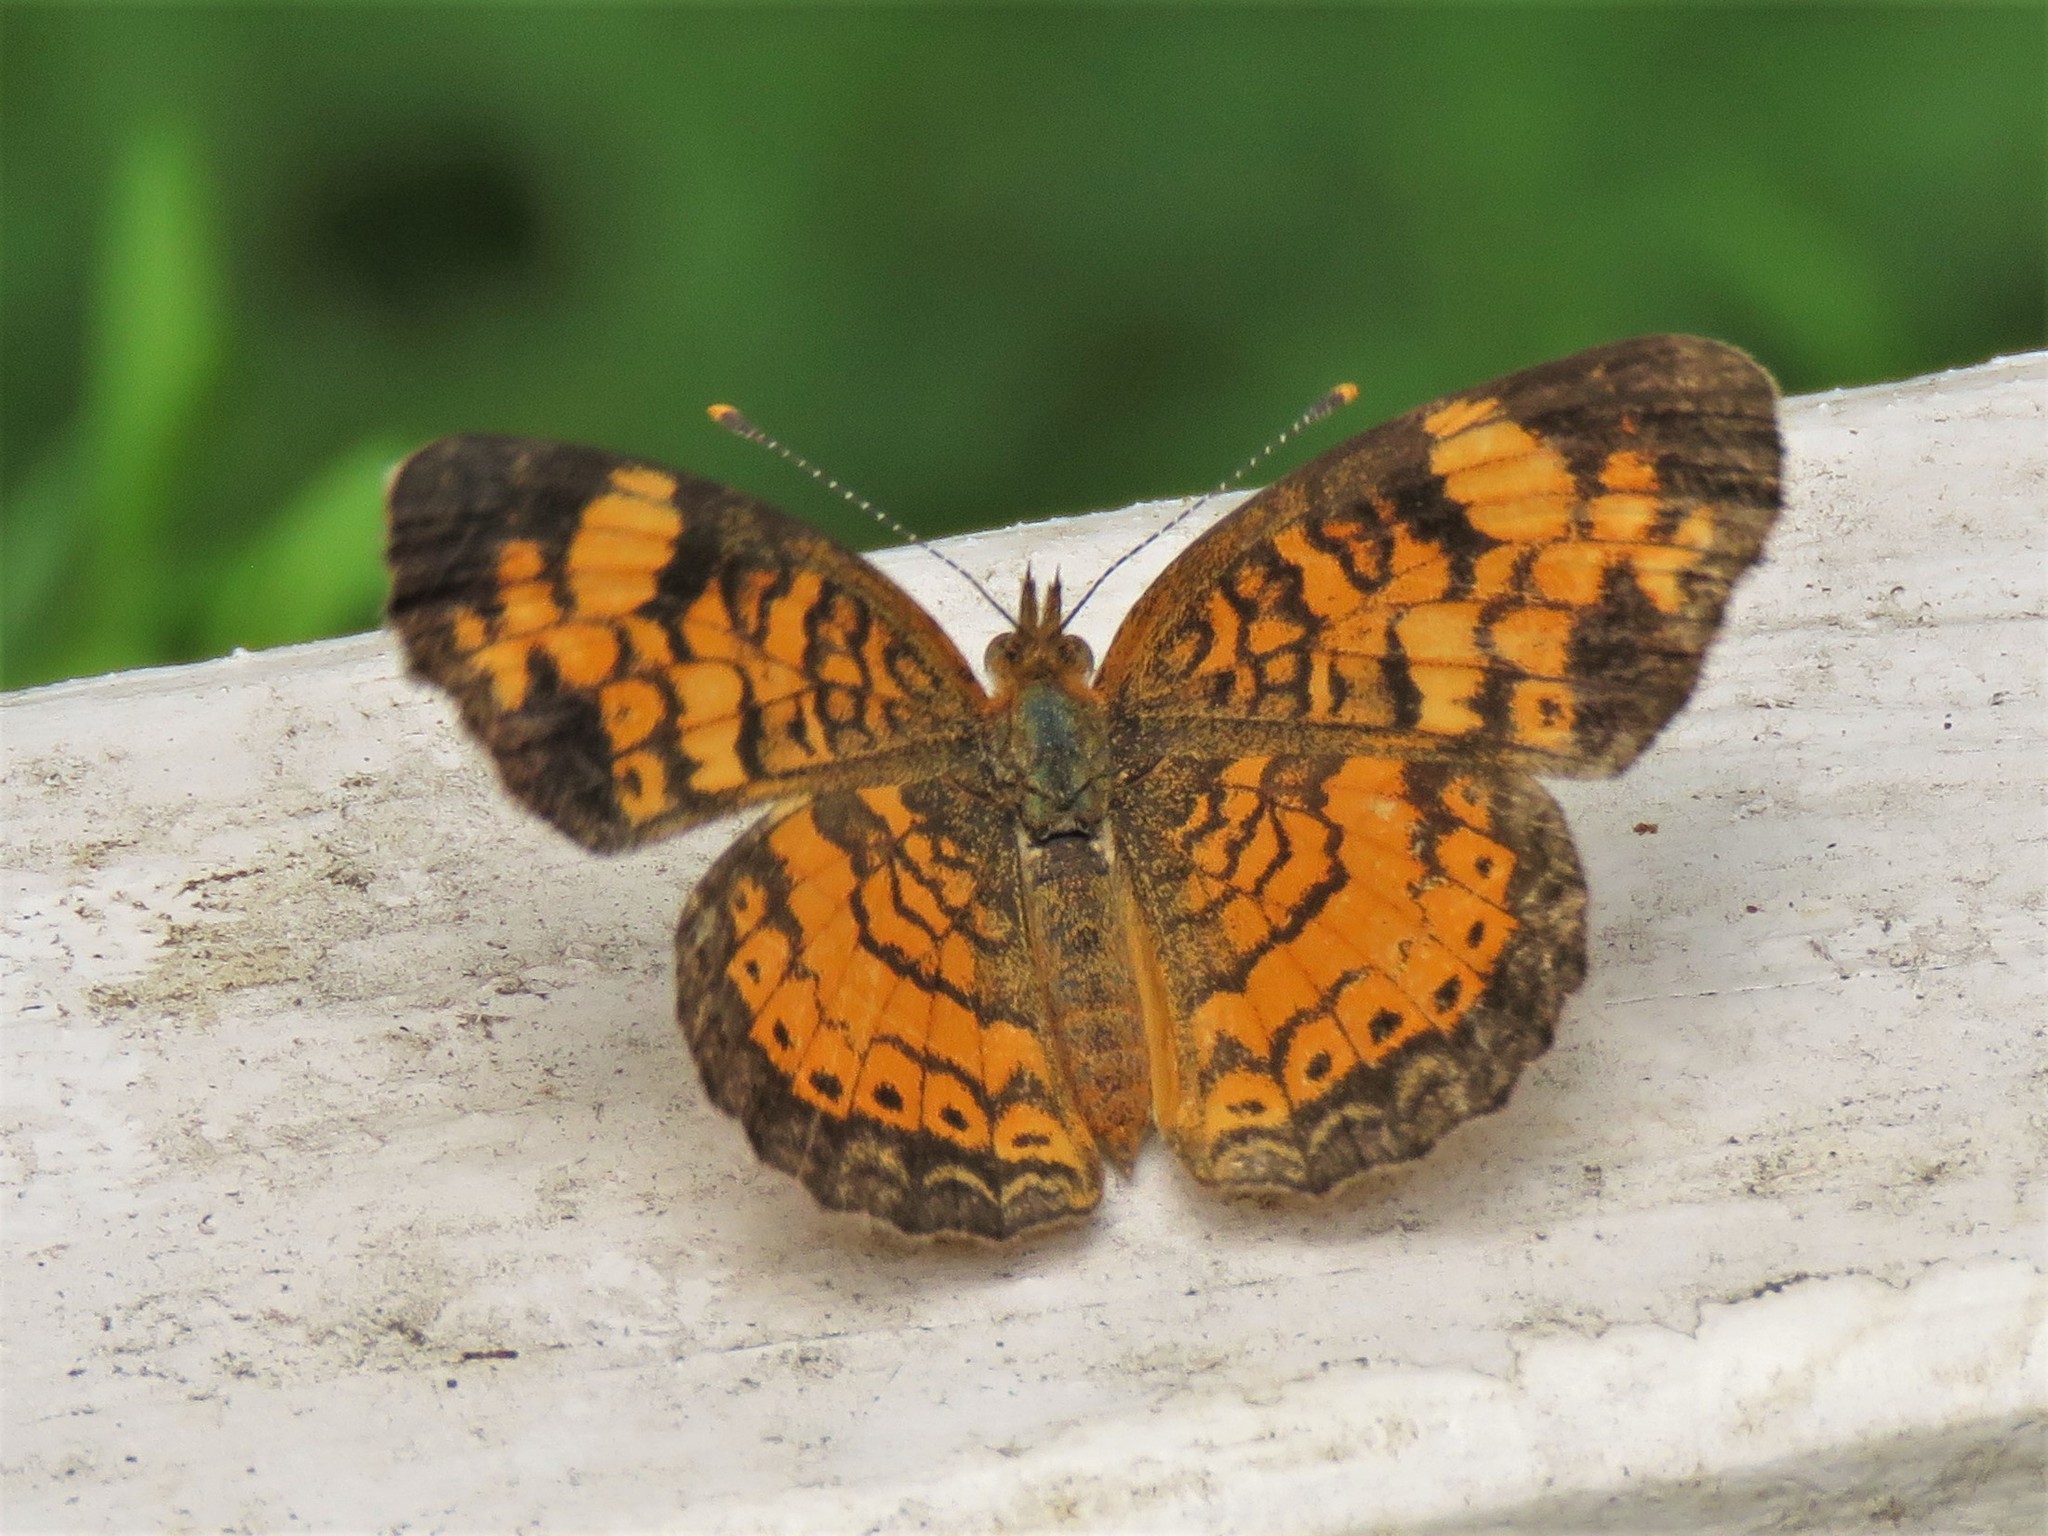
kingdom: Animalia
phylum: Arthropoda
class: Insecta
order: Lepidoptera
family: Nymphalidae
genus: Phyciodes
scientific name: Phyciodes tharos
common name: Pearl crescent
